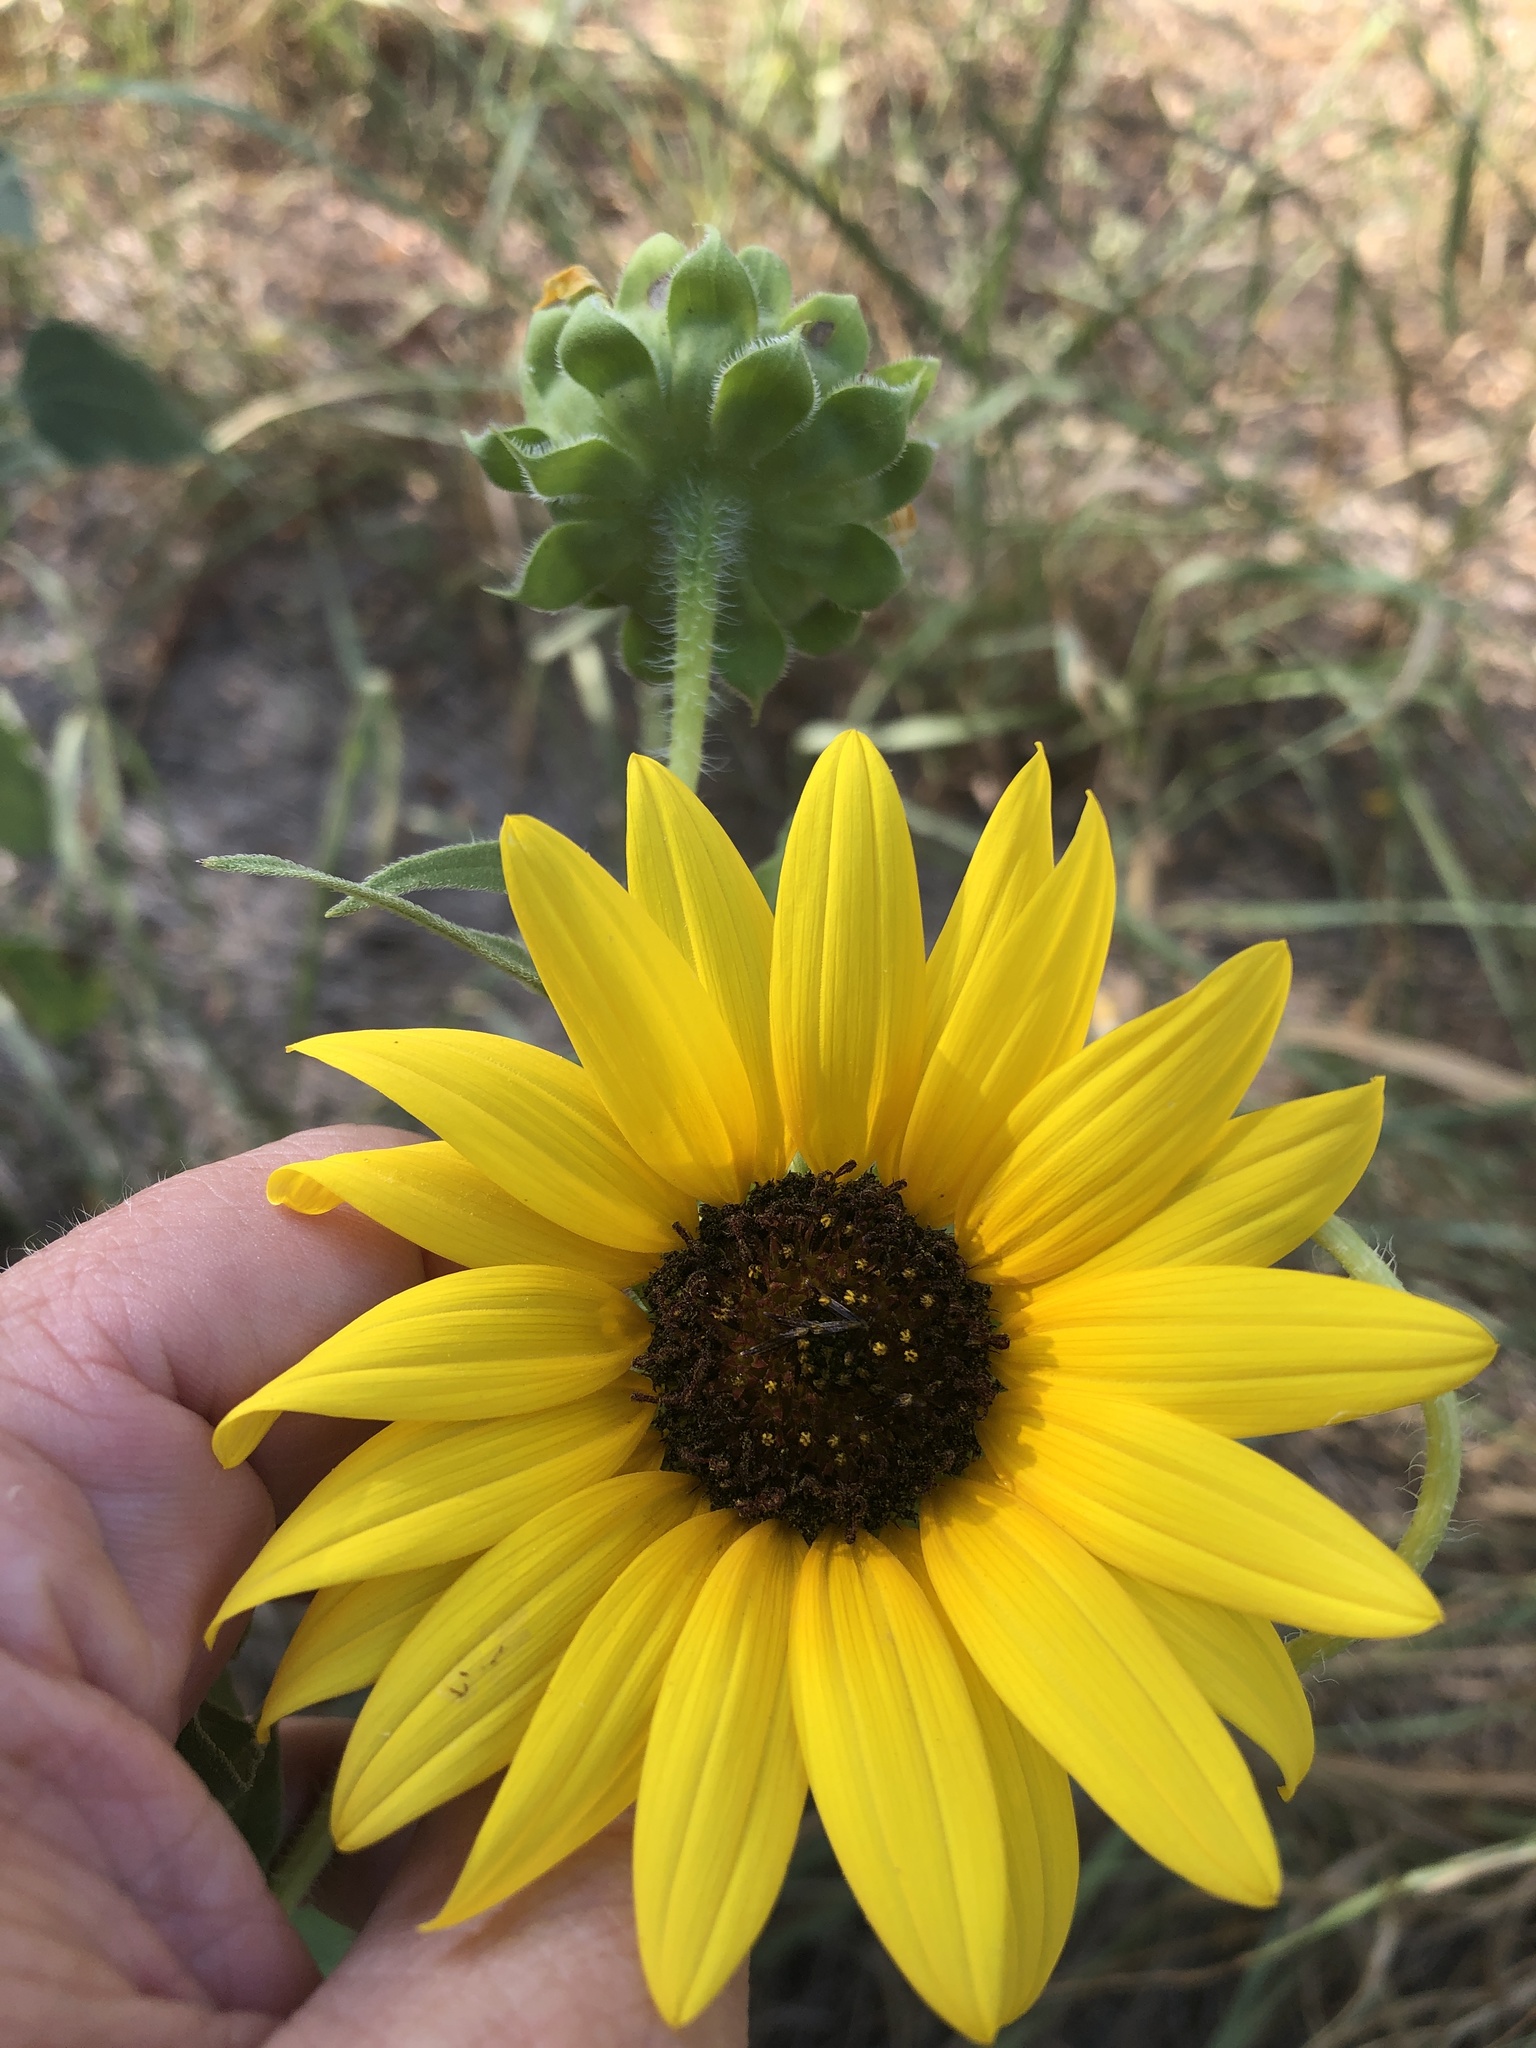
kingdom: Plantae
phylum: Tracheophyta
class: Magnoliopsida
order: Asterales
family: Asteraceae
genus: Helianthus
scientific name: Helianthus annuus
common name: Sunflower
